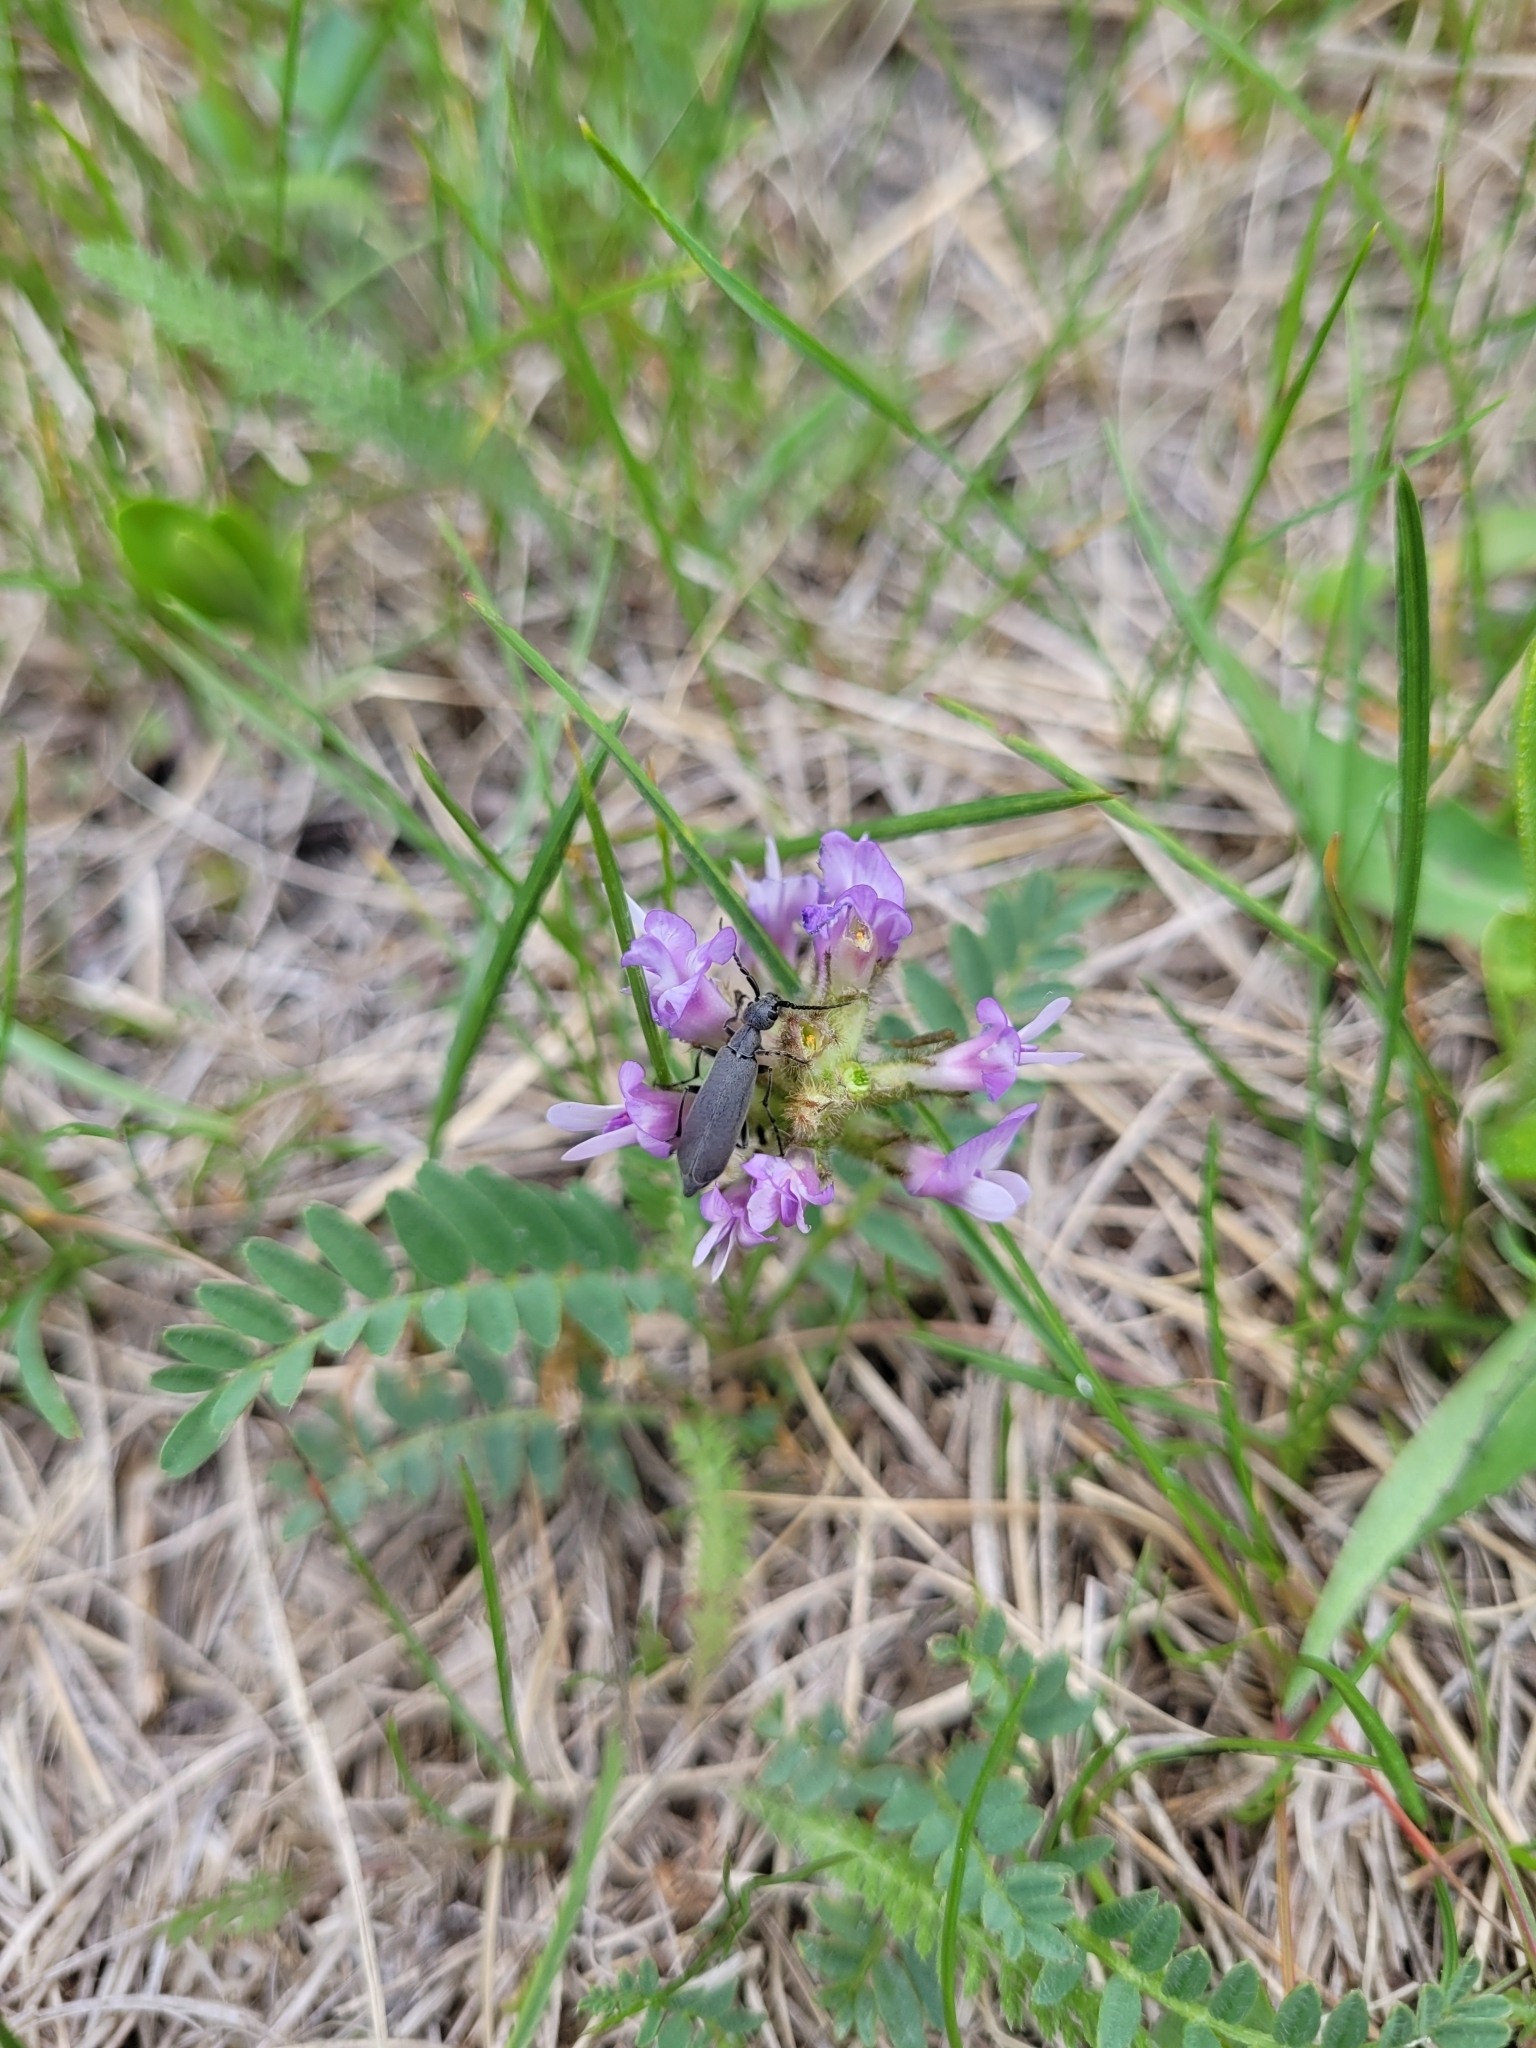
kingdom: Plantae
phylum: Tracheophyta
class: Magnoliopsida
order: Fabales
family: Fabaceae
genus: Astragalus
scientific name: Astragalus agrestis
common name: Field milk-vetch
